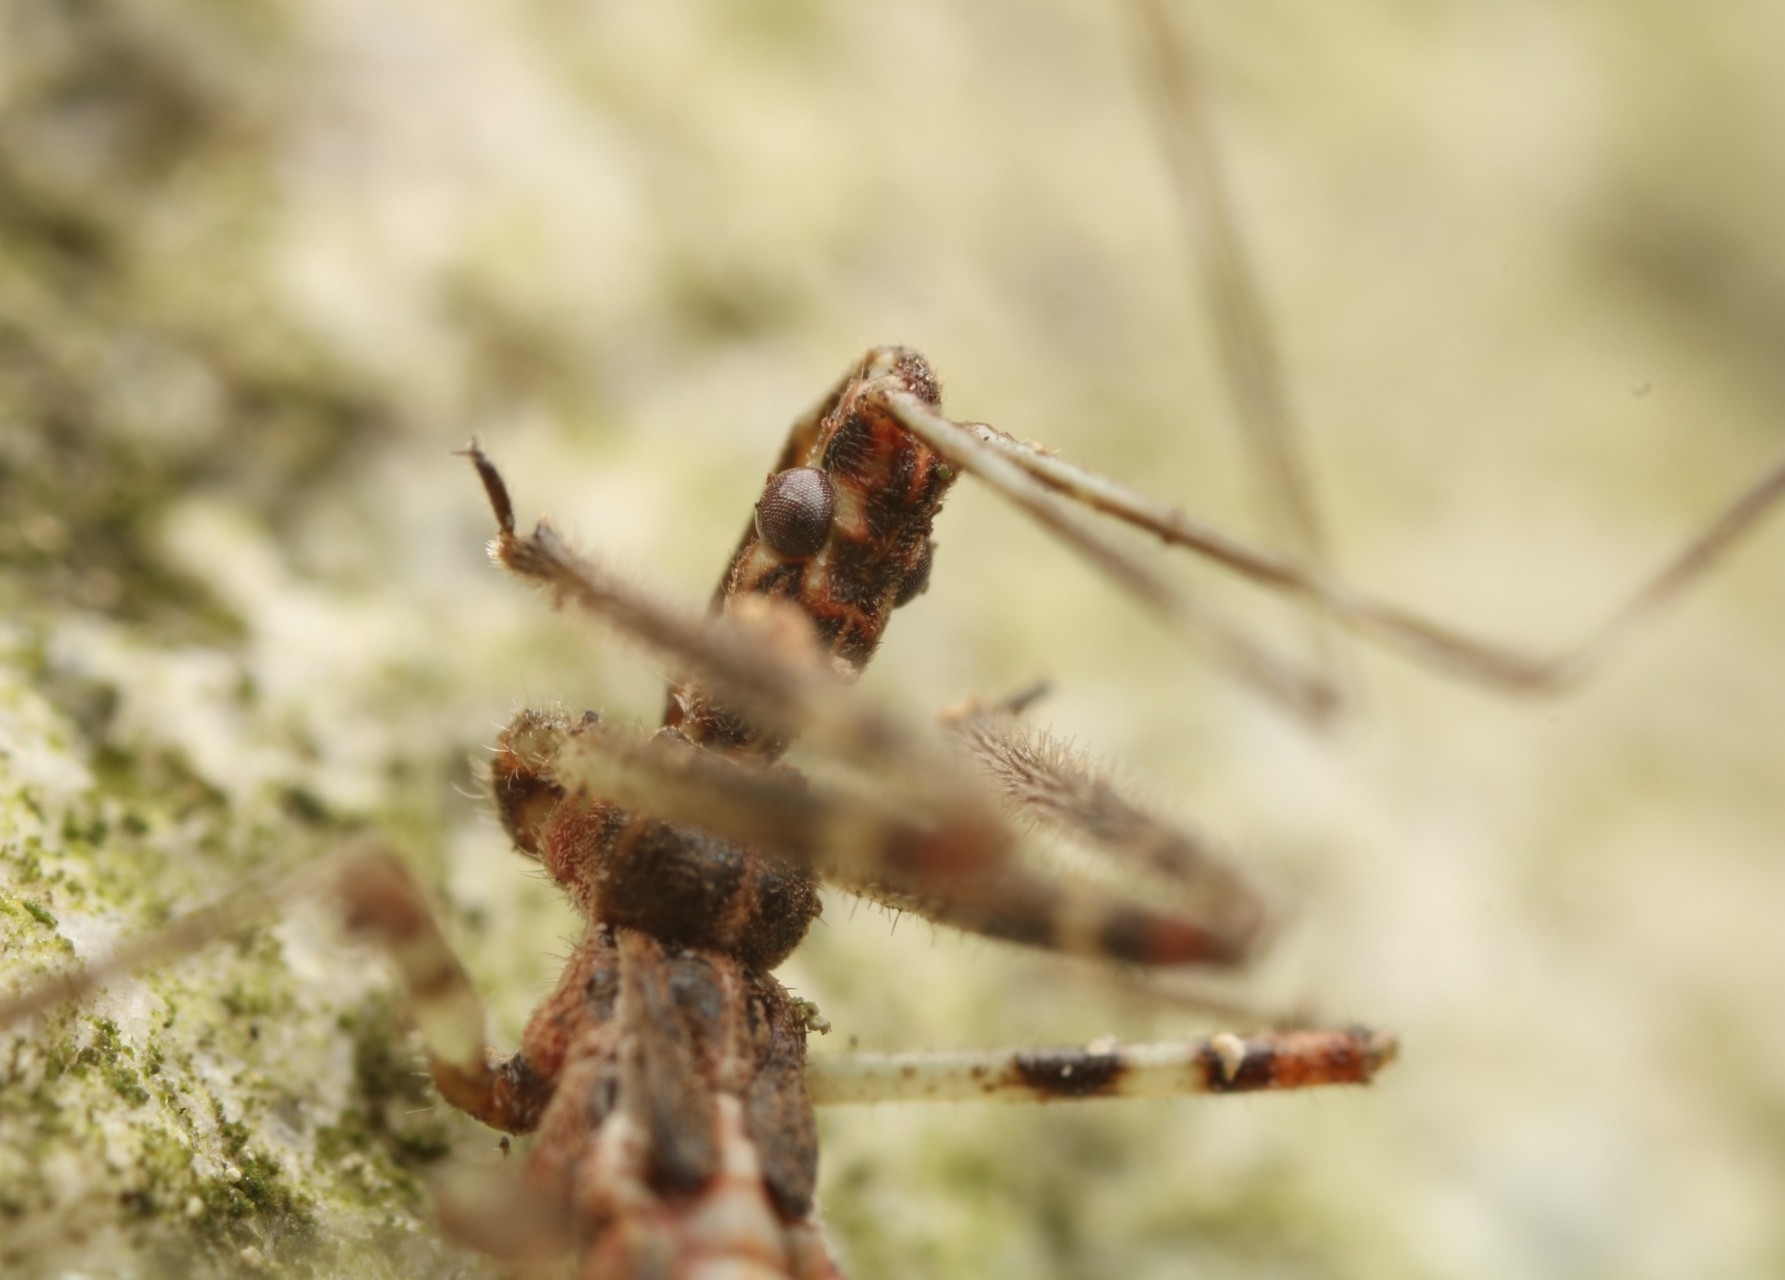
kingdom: Animalia
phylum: Arthropoda
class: Insecta
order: Hemiptera
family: Reduviidae
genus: Zelus
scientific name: Zelus tetracanthus
